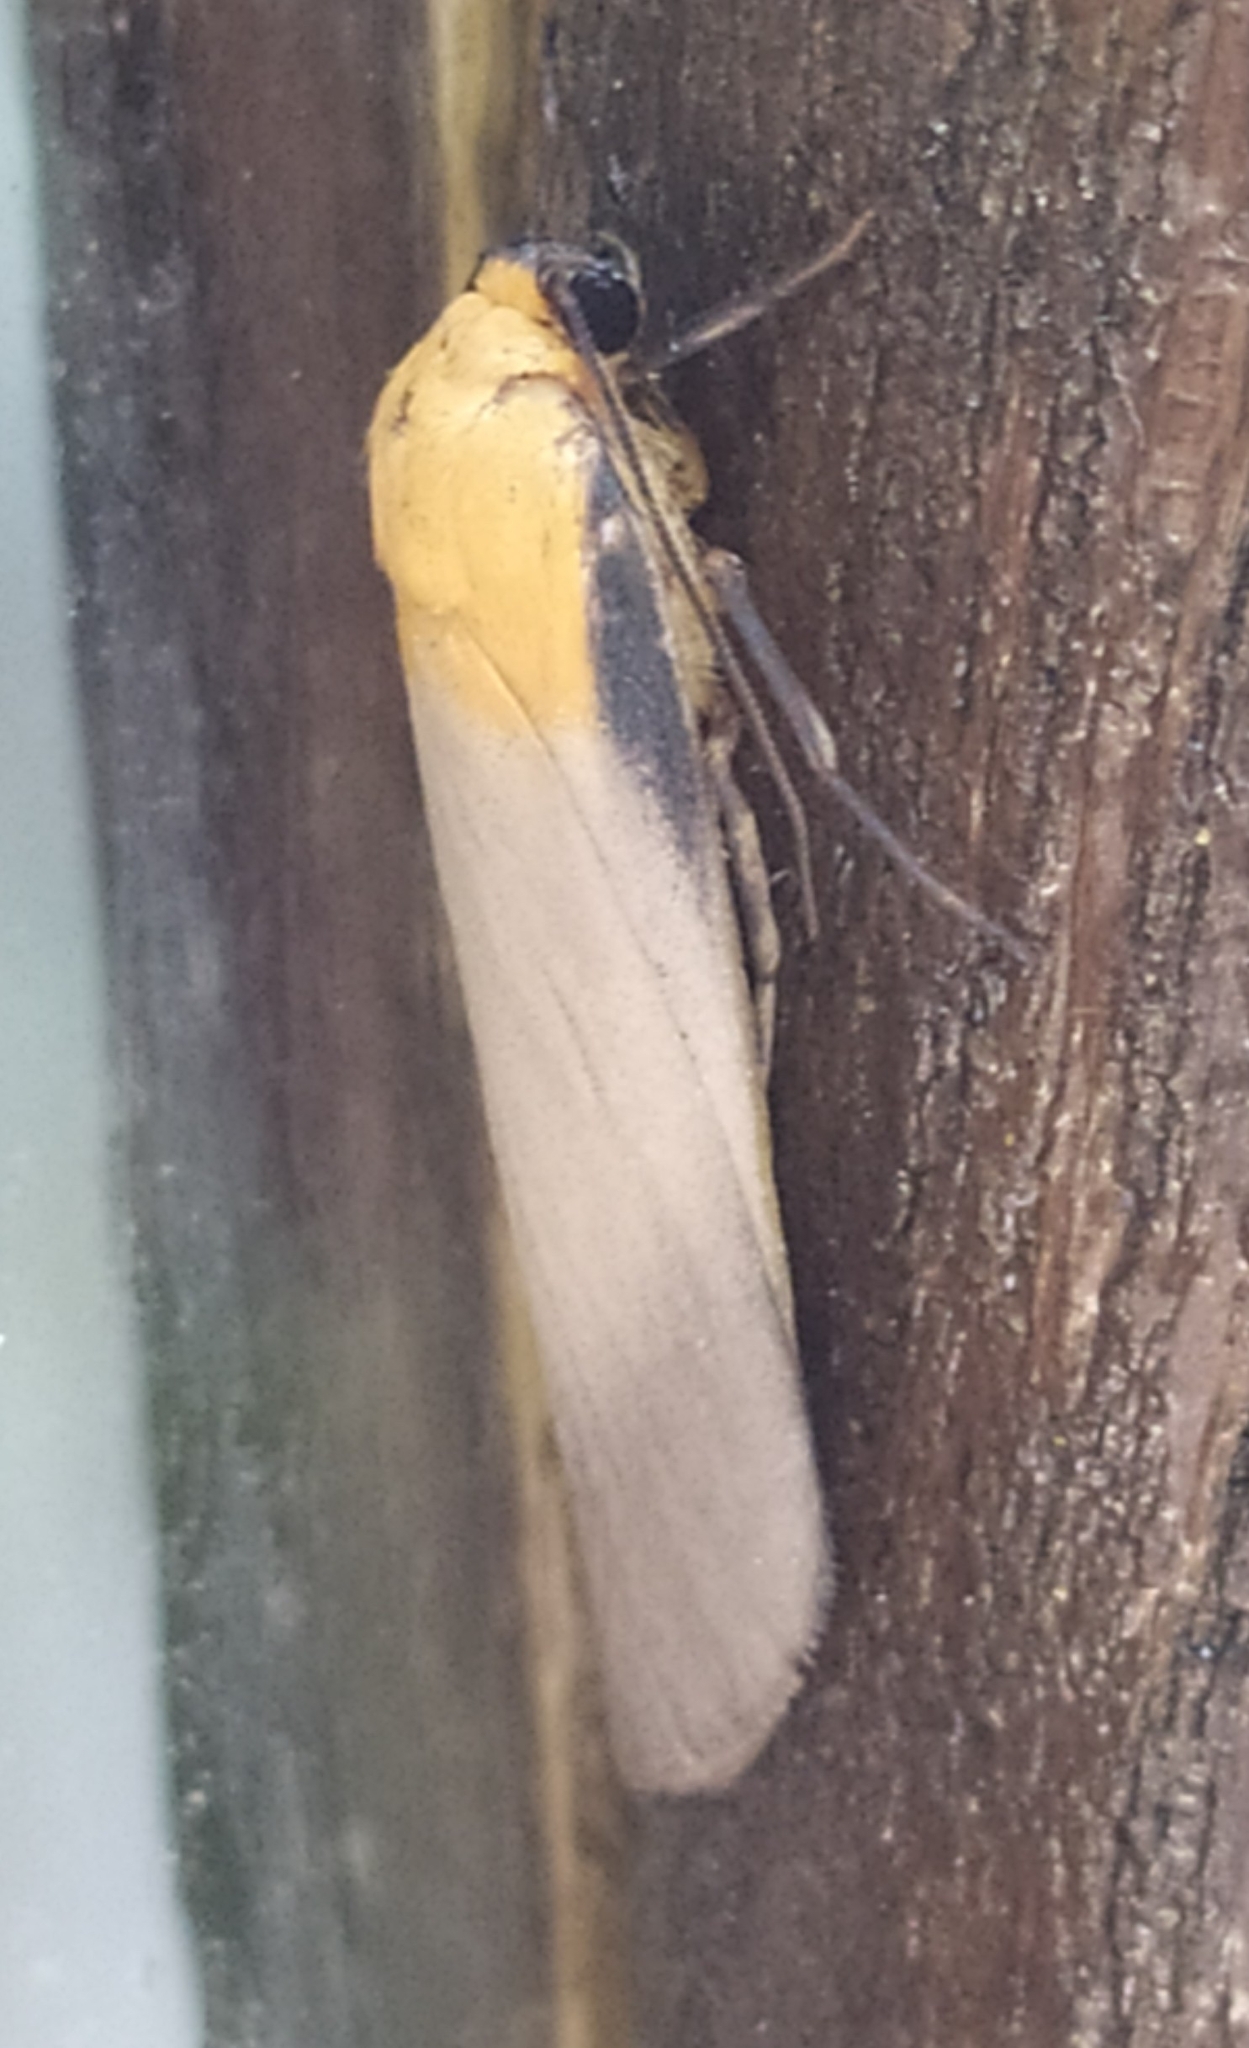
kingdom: Animalia
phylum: Arthropoda
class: Insecta
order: Lepidoptera
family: Erebidae
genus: Lithosia
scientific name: Lithosia quadra
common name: Four-spotted footman
